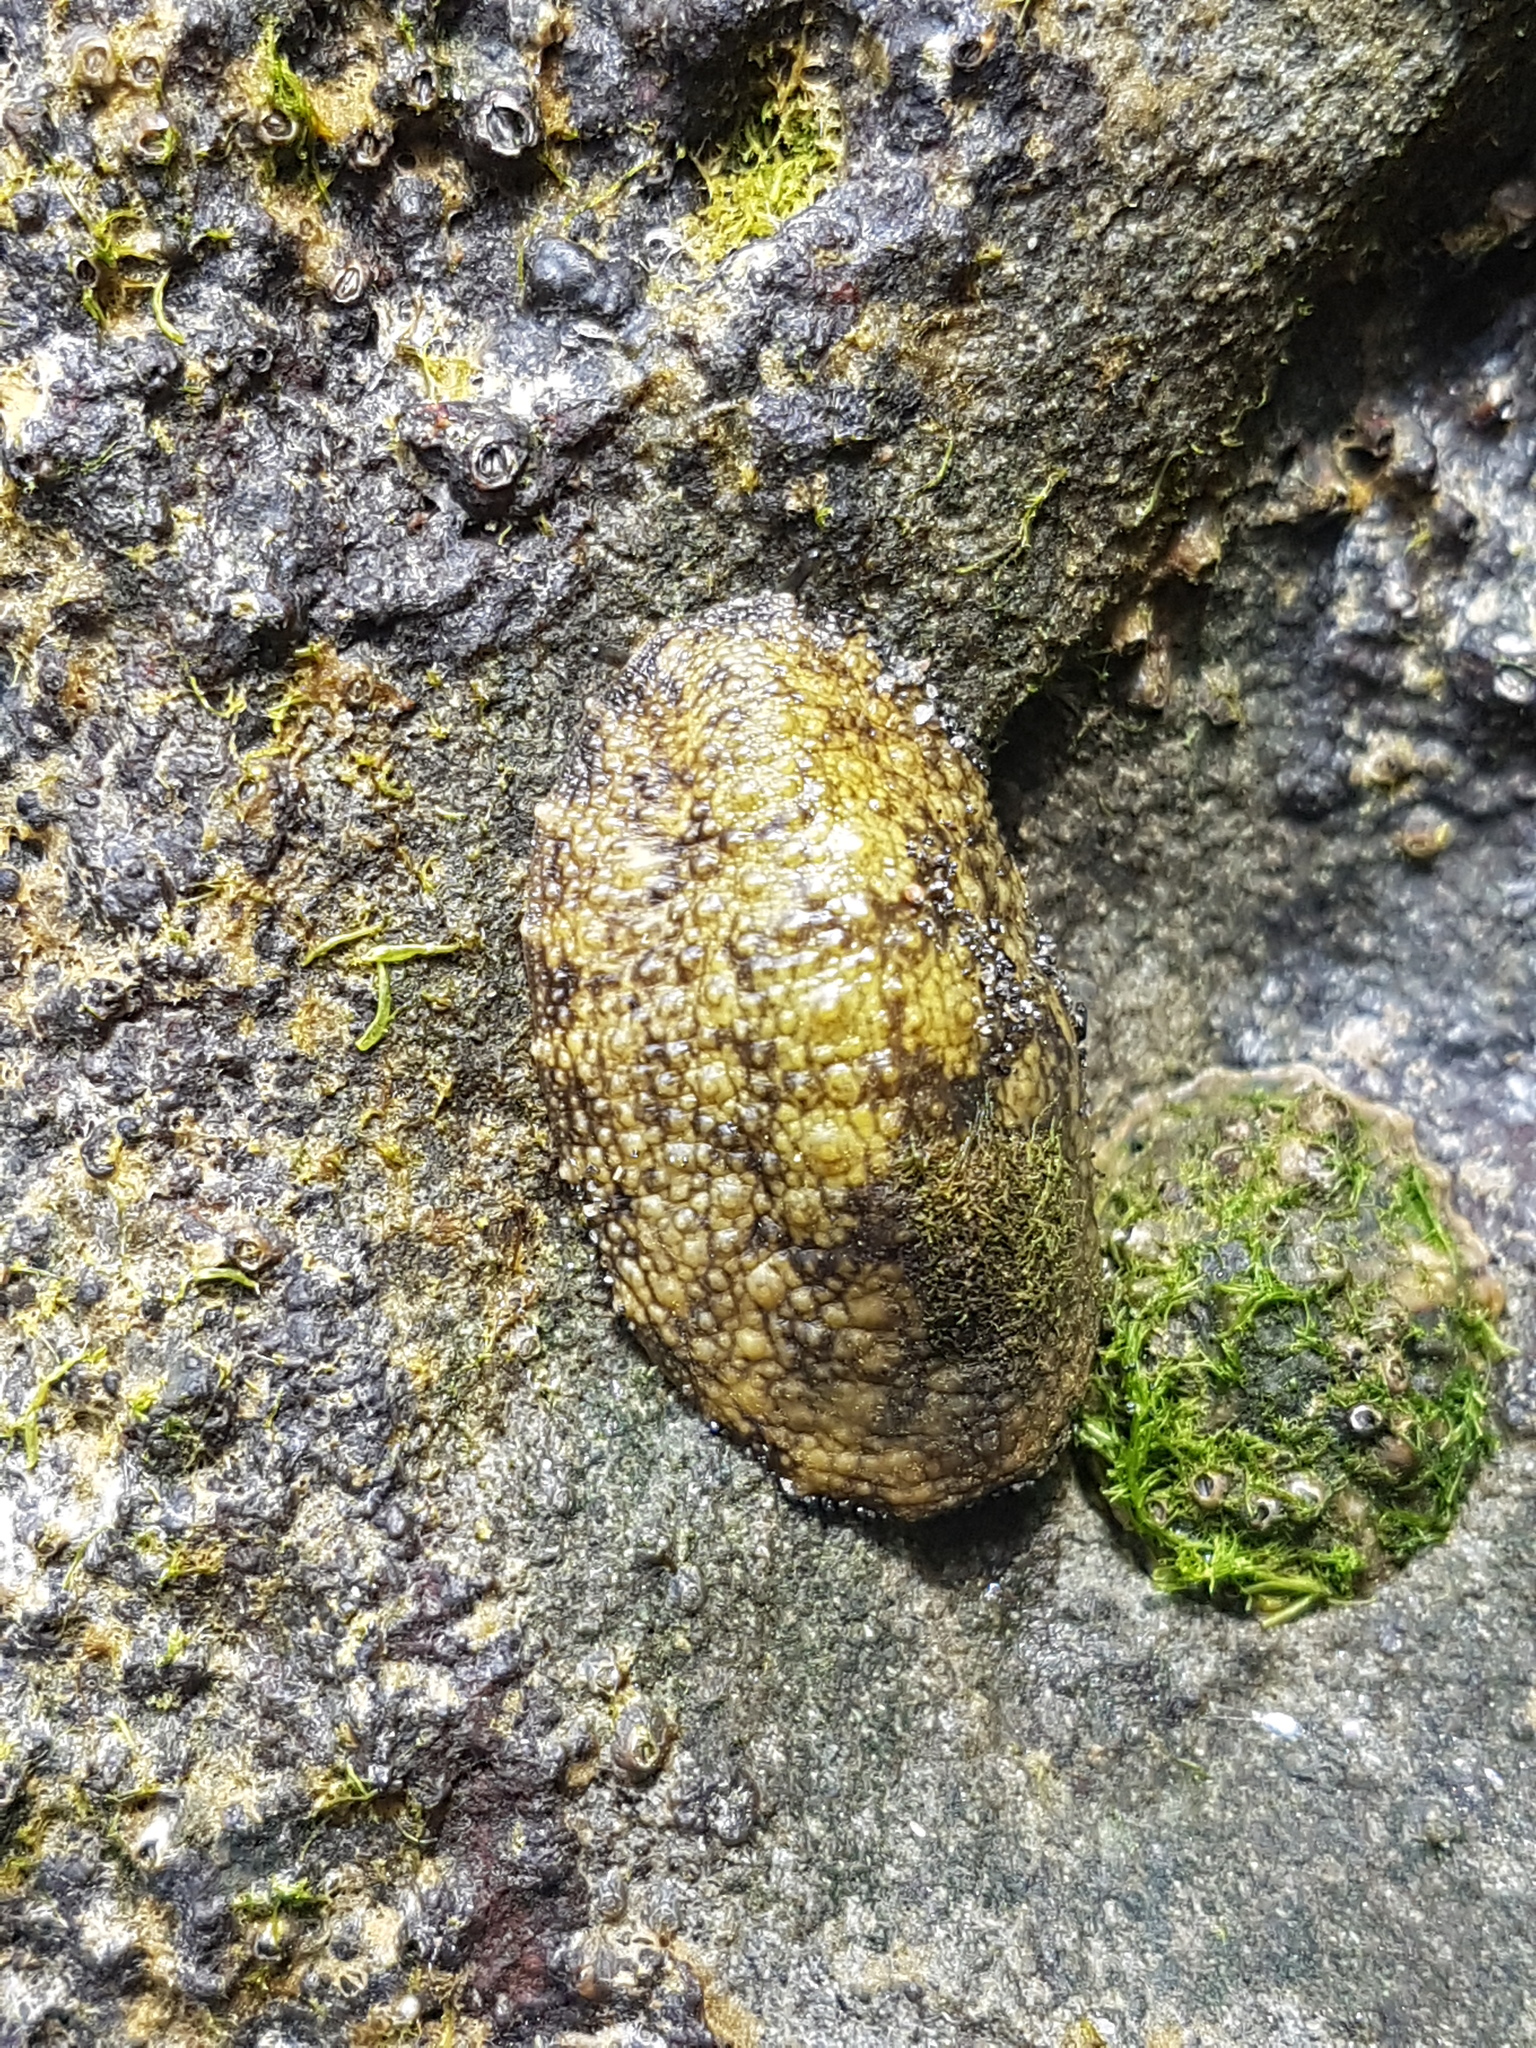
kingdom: Animalia
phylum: Mollusca
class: Gastropoda
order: Systellommatophora
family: Onchidiidae
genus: Onchidella
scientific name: Onchidella nigricans
